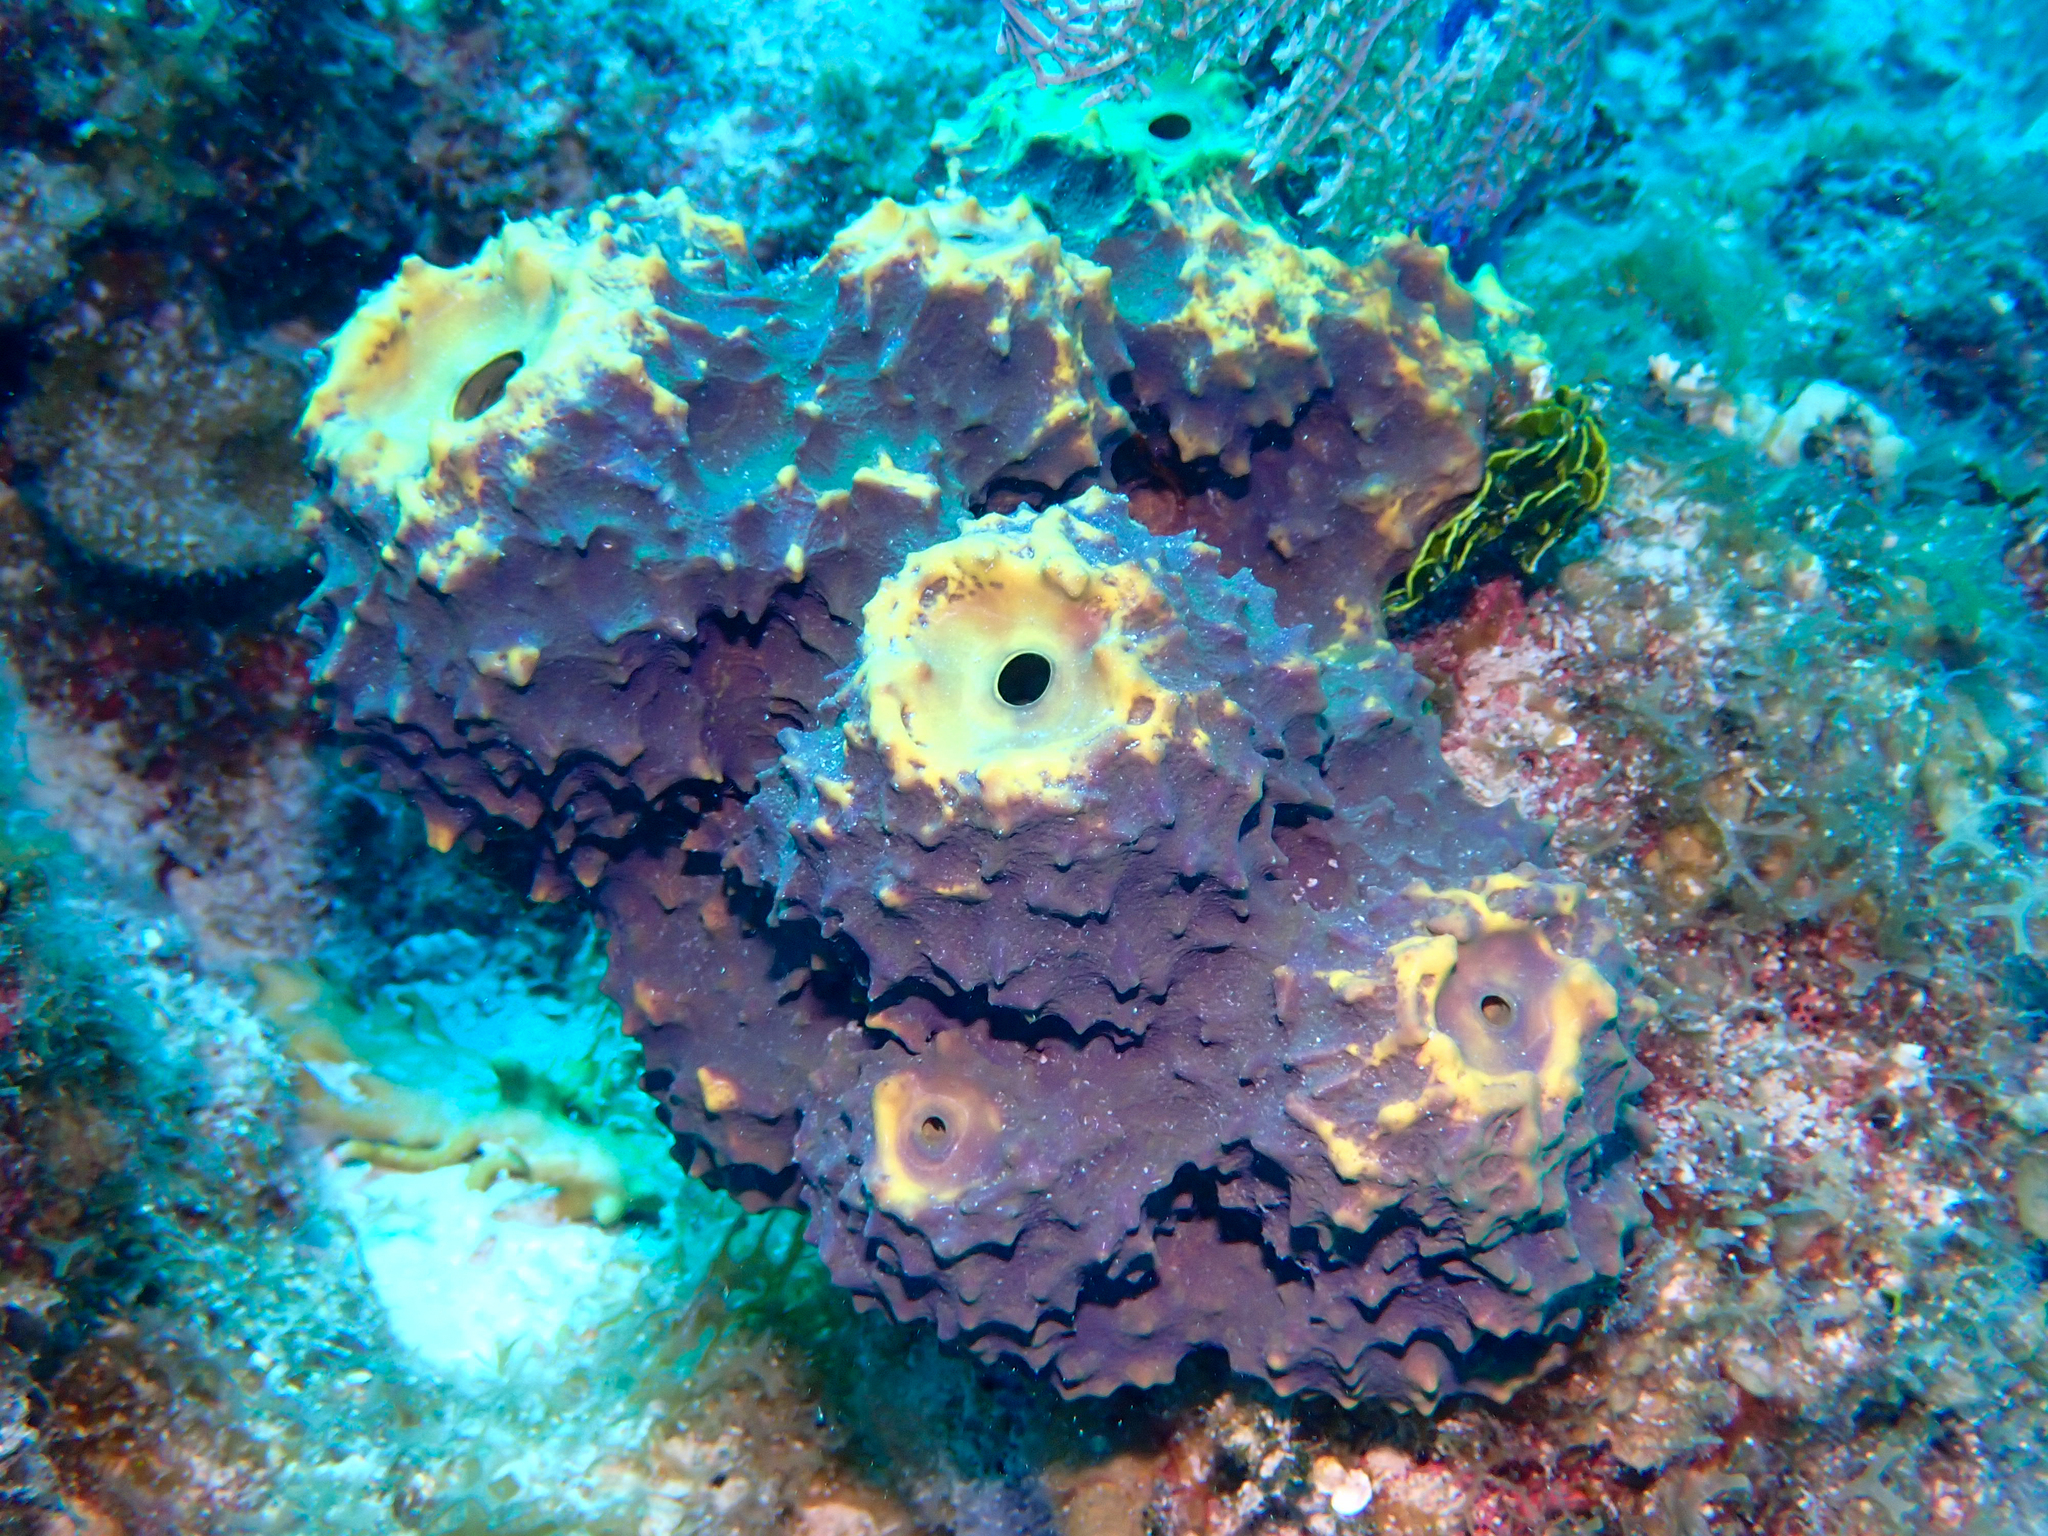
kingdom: Animalia
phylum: Porifera
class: Demospongiae
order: Verongiida
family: Aplysinidae
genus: Aiolochroia
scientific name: Aiolochroia crassa
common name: Branching tube sponge
